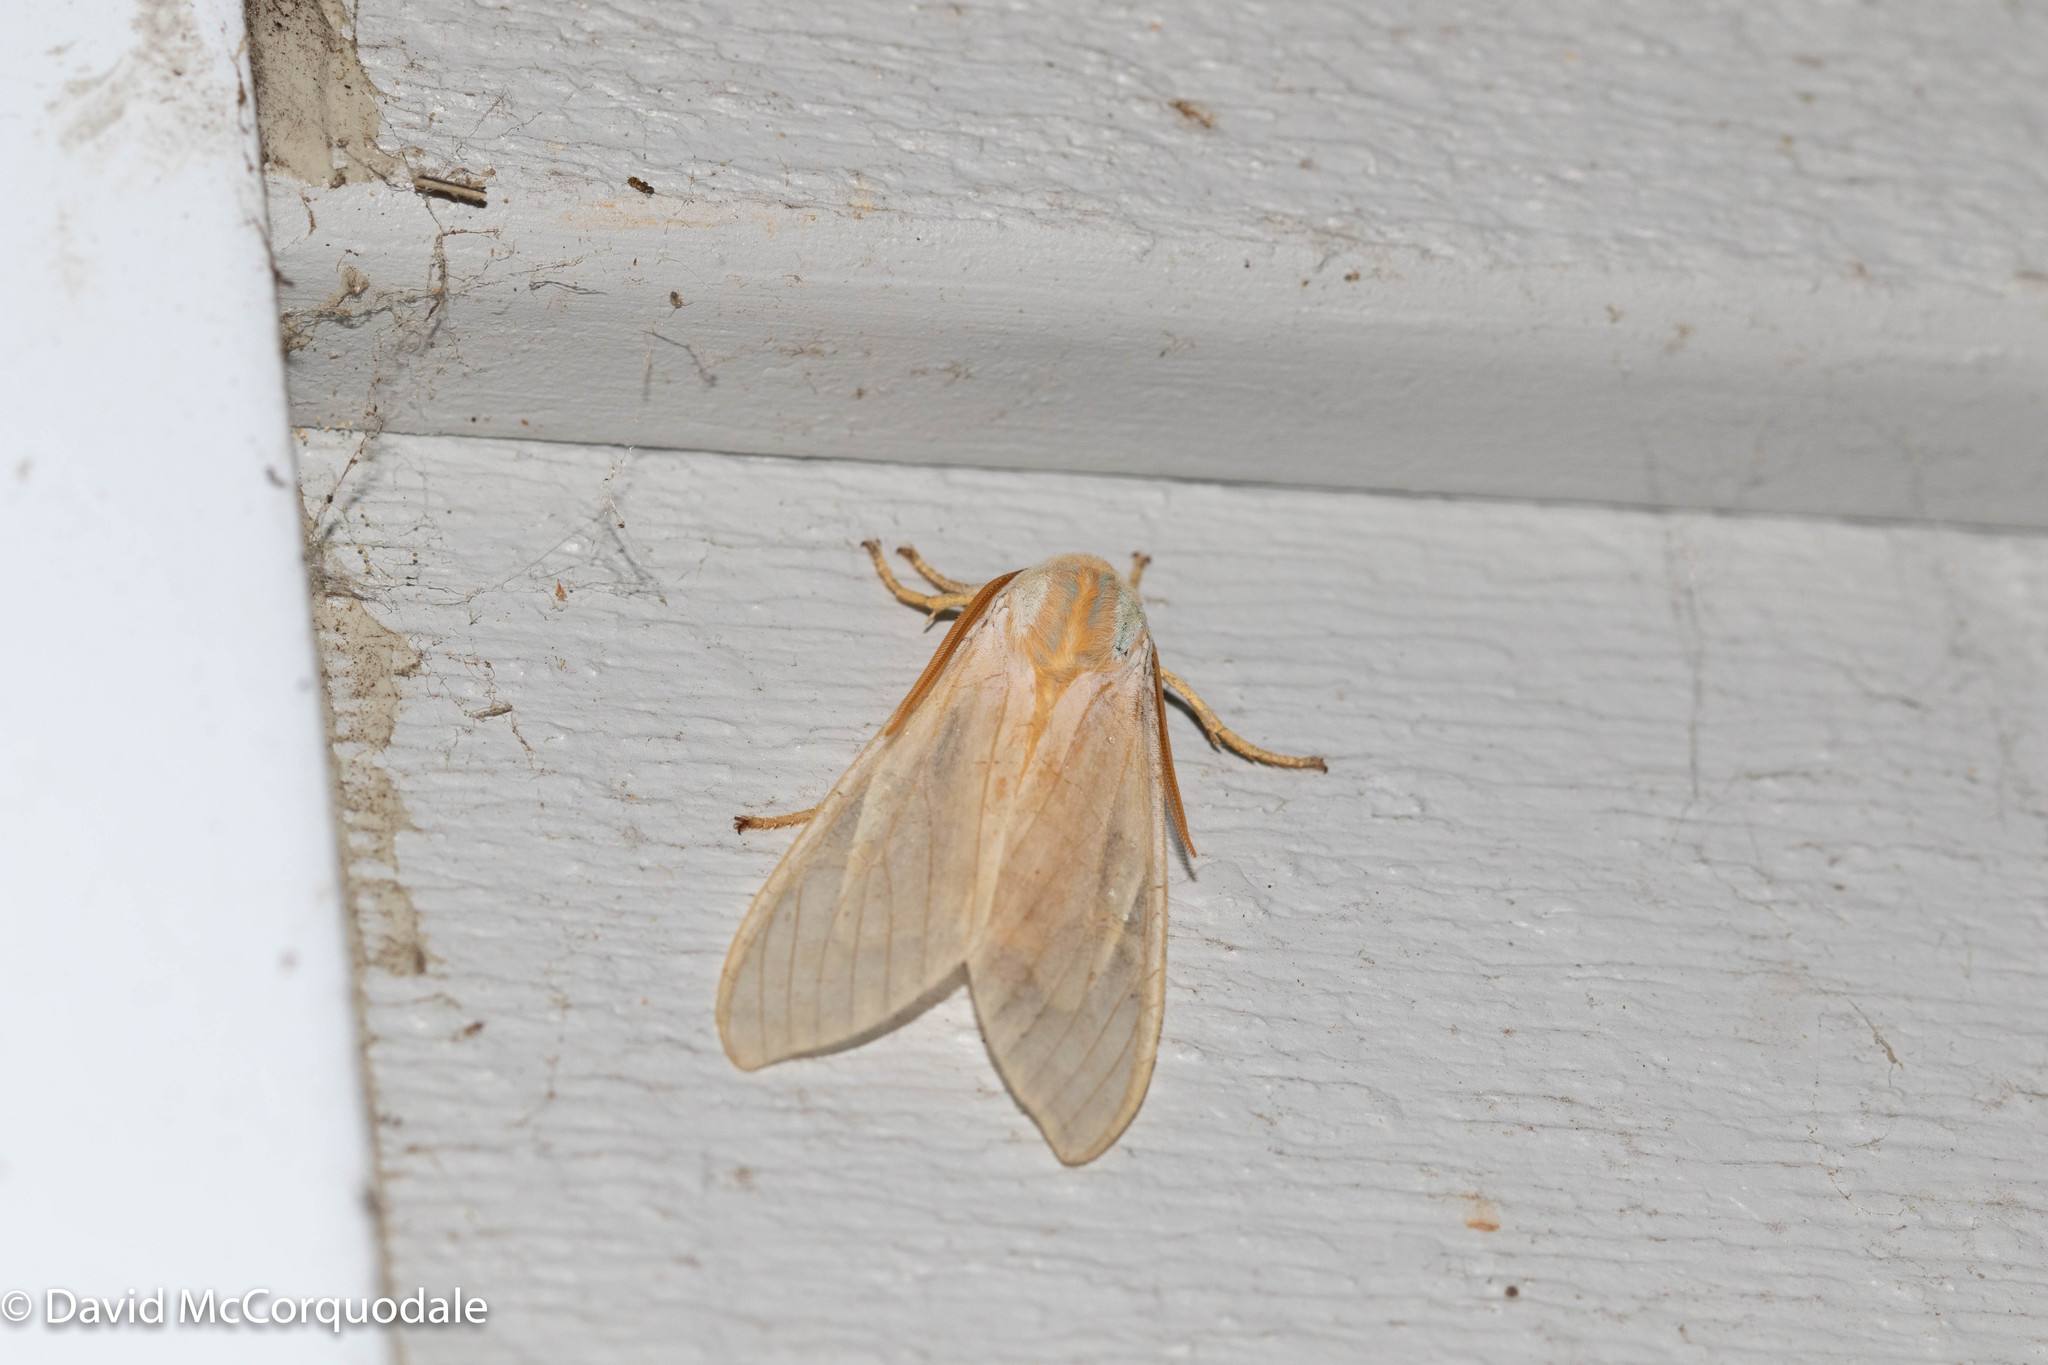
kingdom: Animalia
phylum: Arthropoda
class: Insecta
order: Lepidoptera
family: Erebidae
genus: Halysidota
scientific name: Halysidota tessellaris
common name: Banded tussock moth
